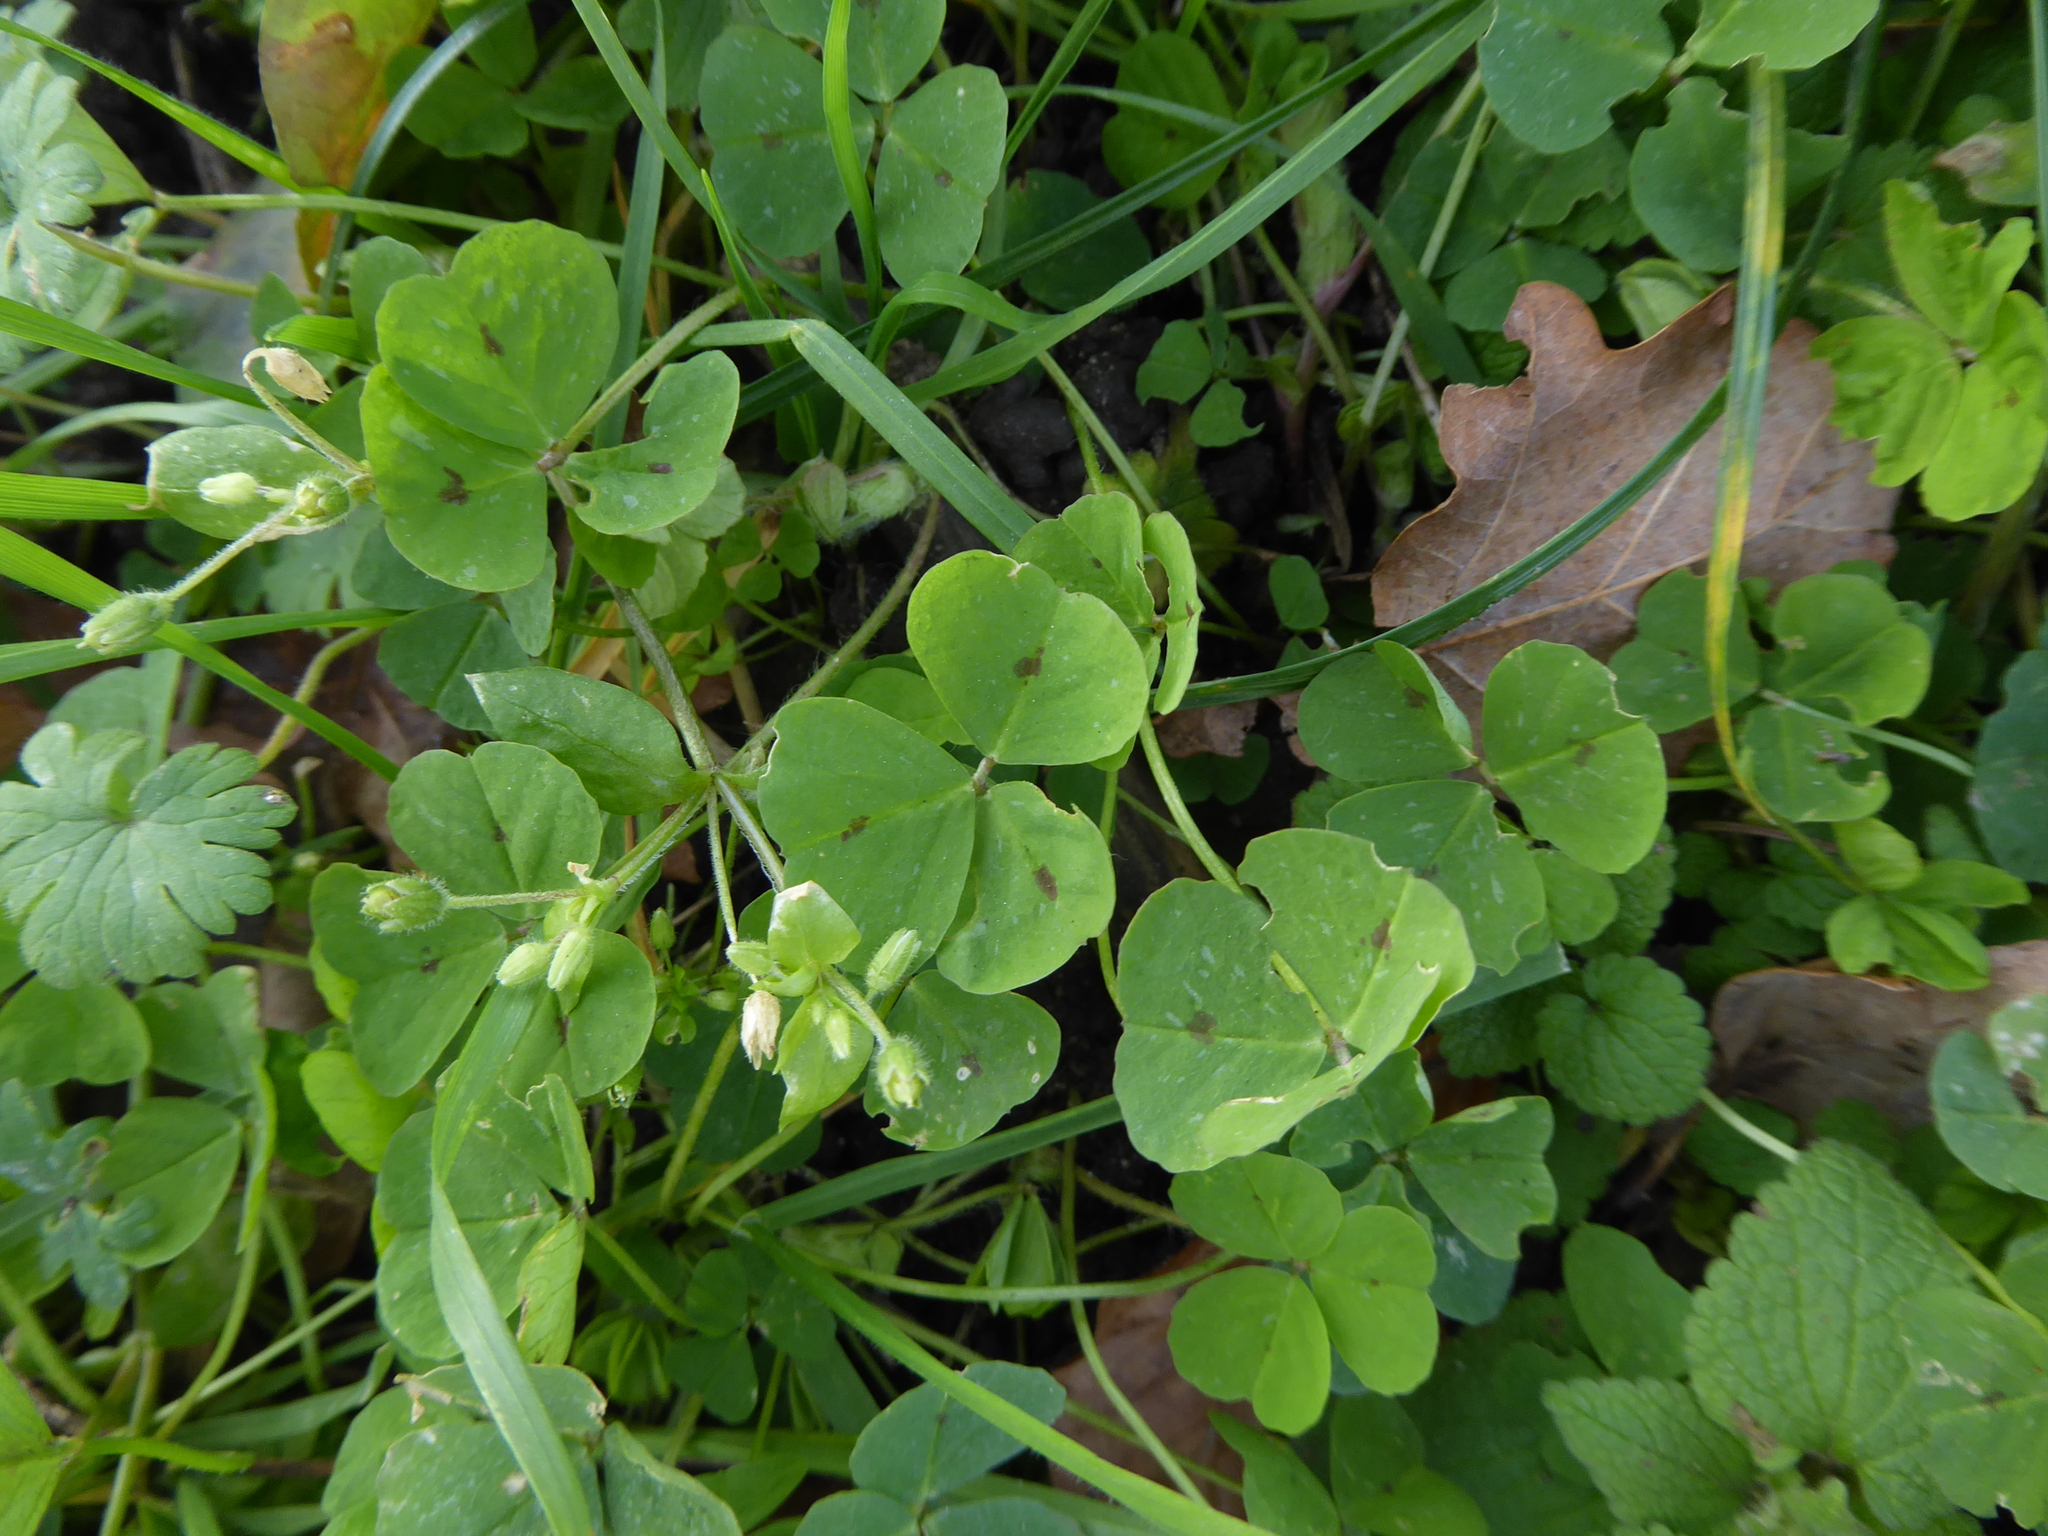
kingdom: Plantae
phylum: Tracheophyta
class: Magnoliopsida
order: Fabales
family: Fabaceae
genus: Medicago
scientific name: Medicago arabica
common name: Spotted medick
